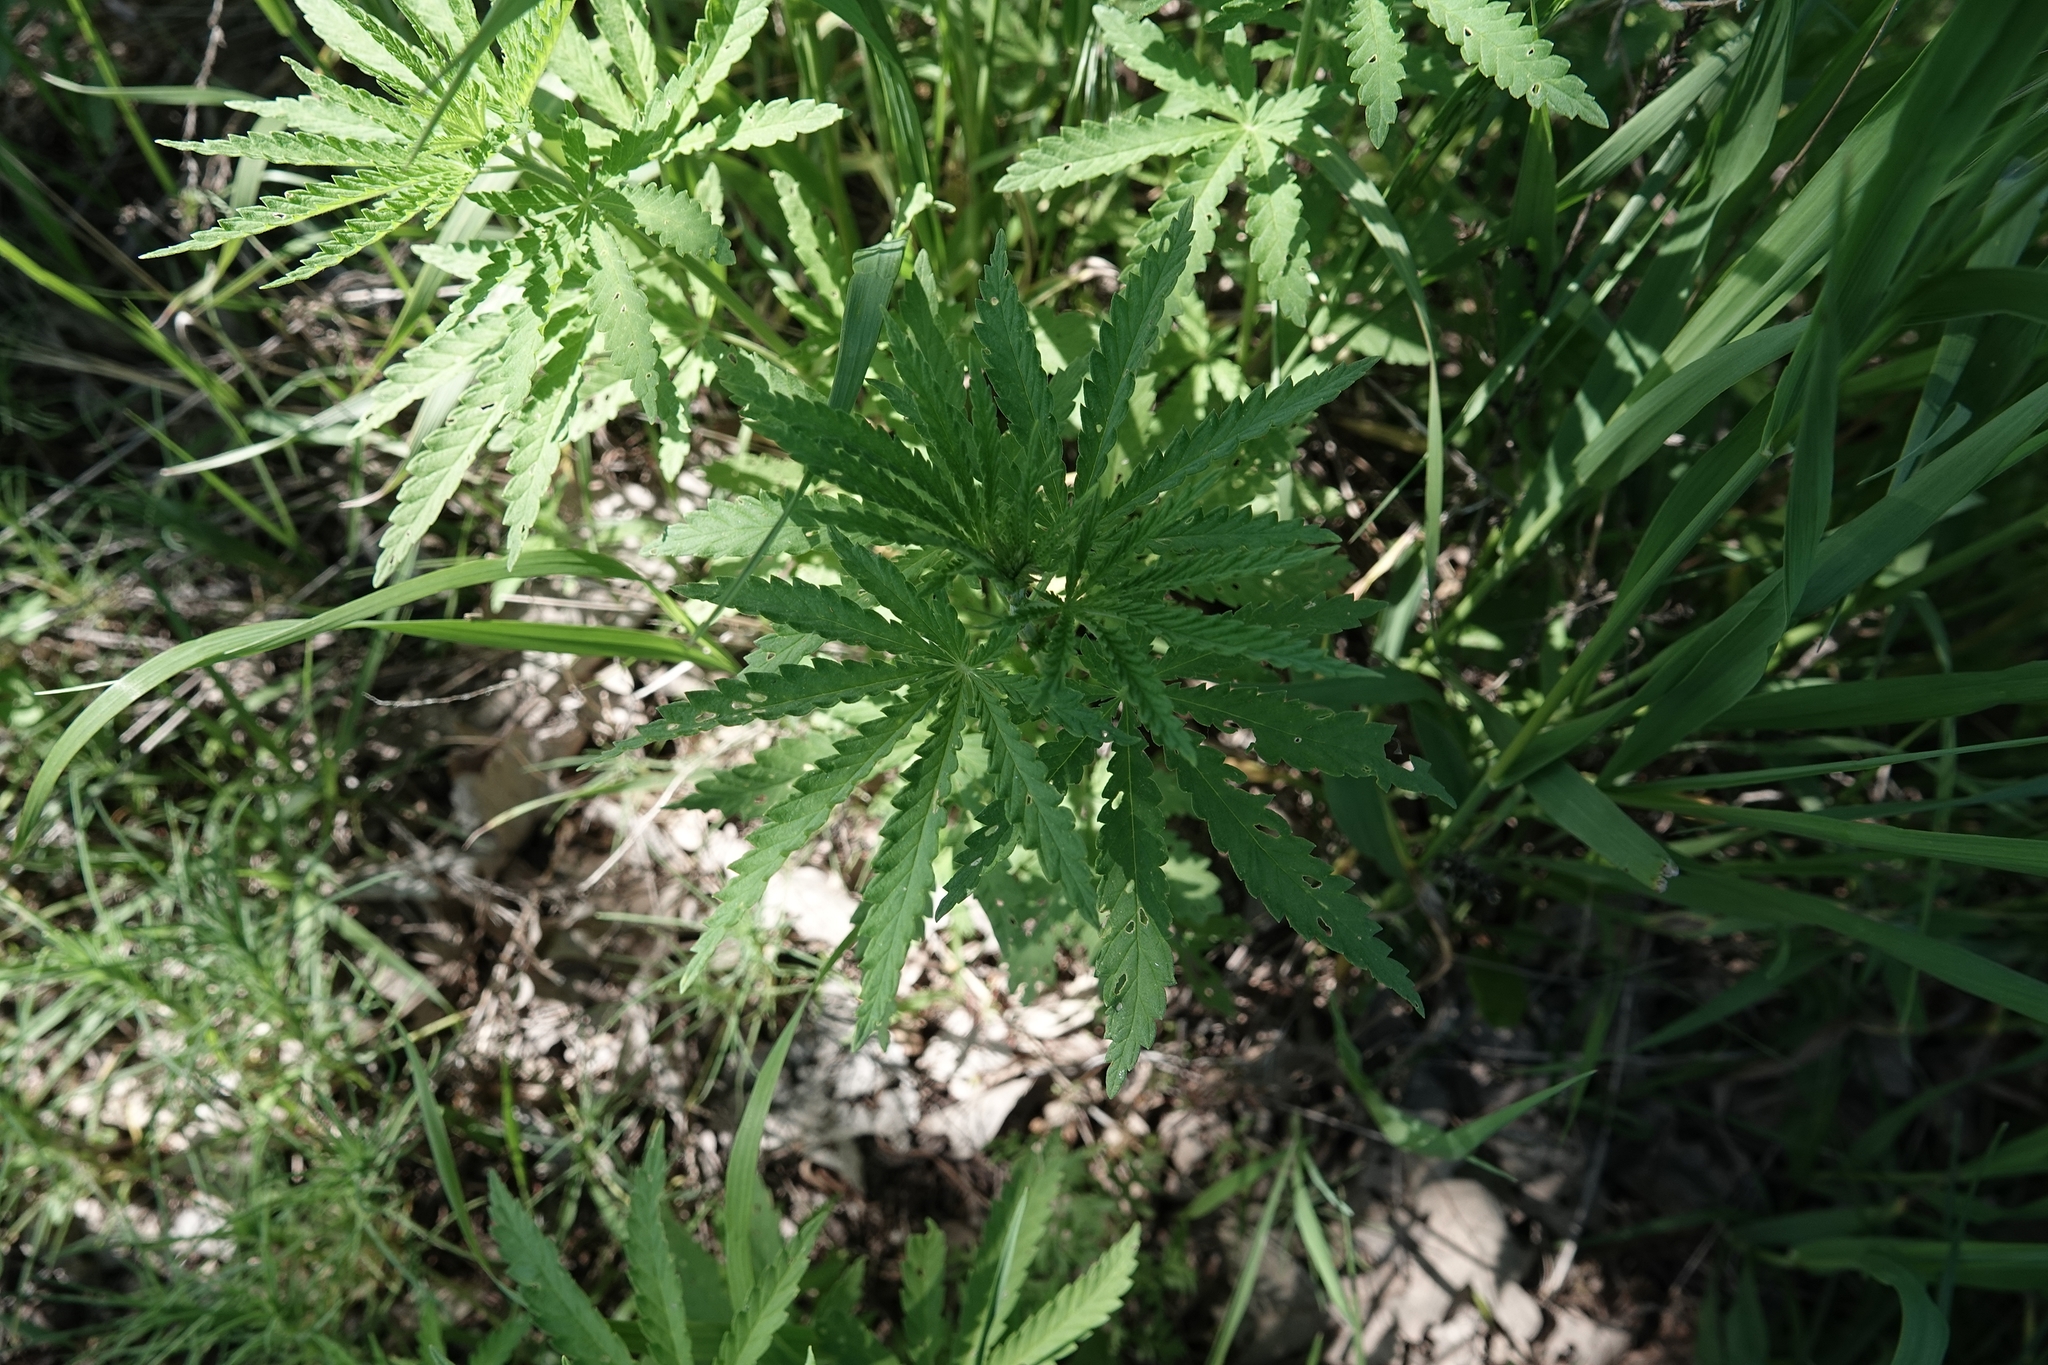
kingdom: Plantae
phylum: Tracheophyta
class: Magnoliopsida
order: Rosales
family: Cannabaceae
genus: Cannabis
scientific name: Cannabis sativa
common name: Hemp
